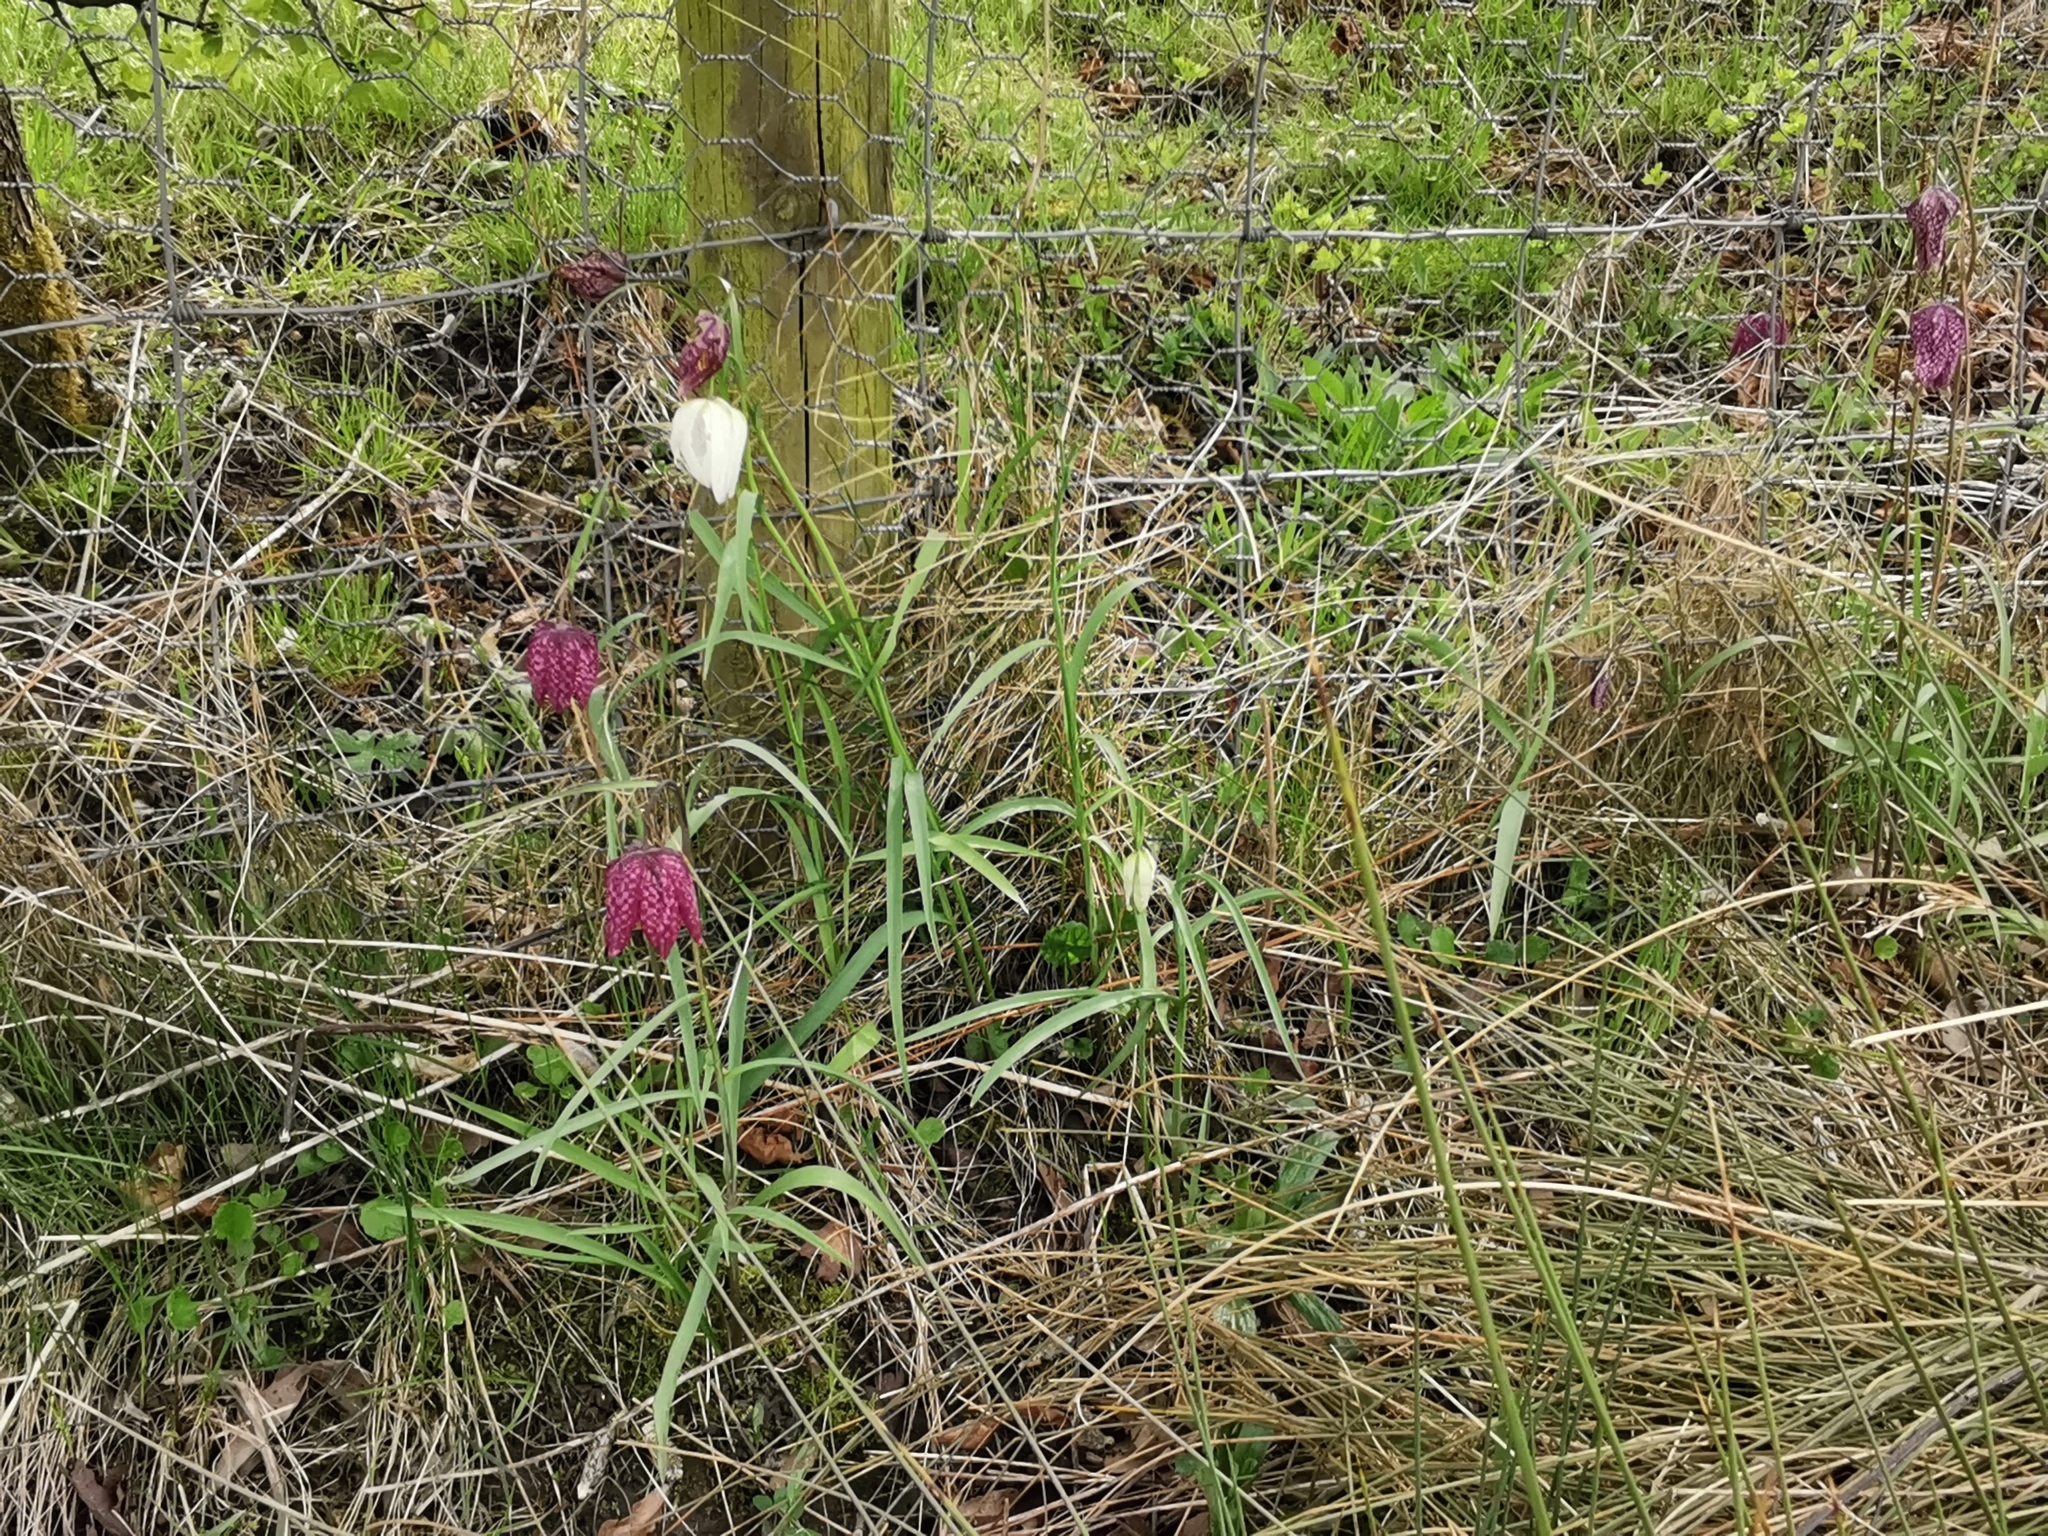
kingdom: Plantae
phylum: Tracheophyta
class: Liliopsida
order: Liliales
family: Liliaceae
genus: Fritillaria
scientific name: Fritillaria meleagris
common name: Fritillary
